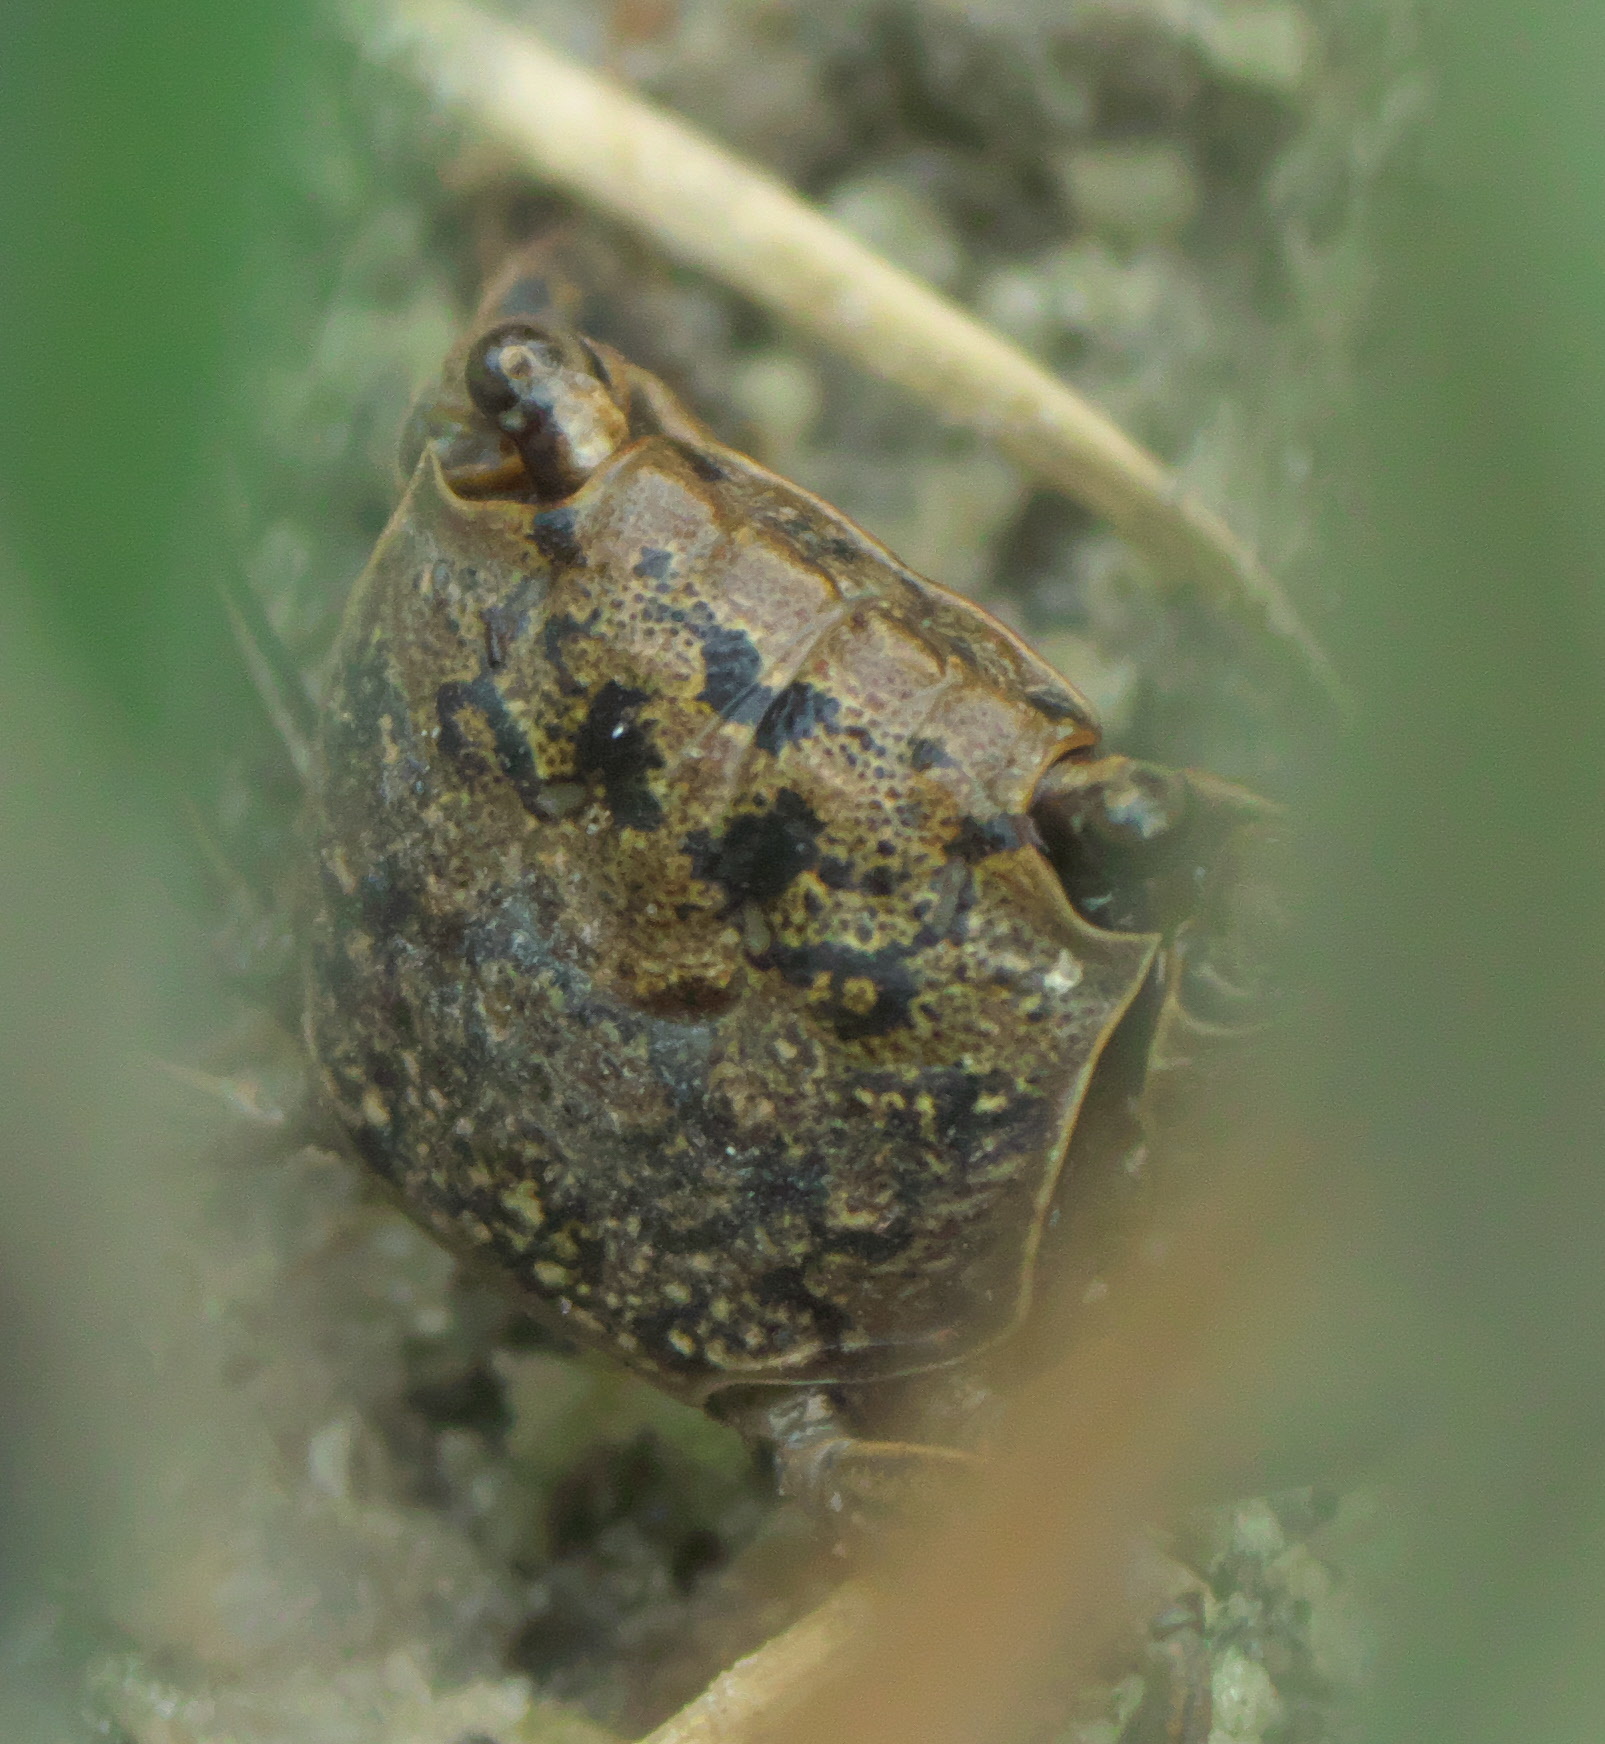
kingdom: Animalia
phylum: Arthropoda
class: Malacostraca
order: Decapoda
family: Sesarmidae
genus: Armases
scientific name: Armases cinereum
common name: Squareback marsh crab
